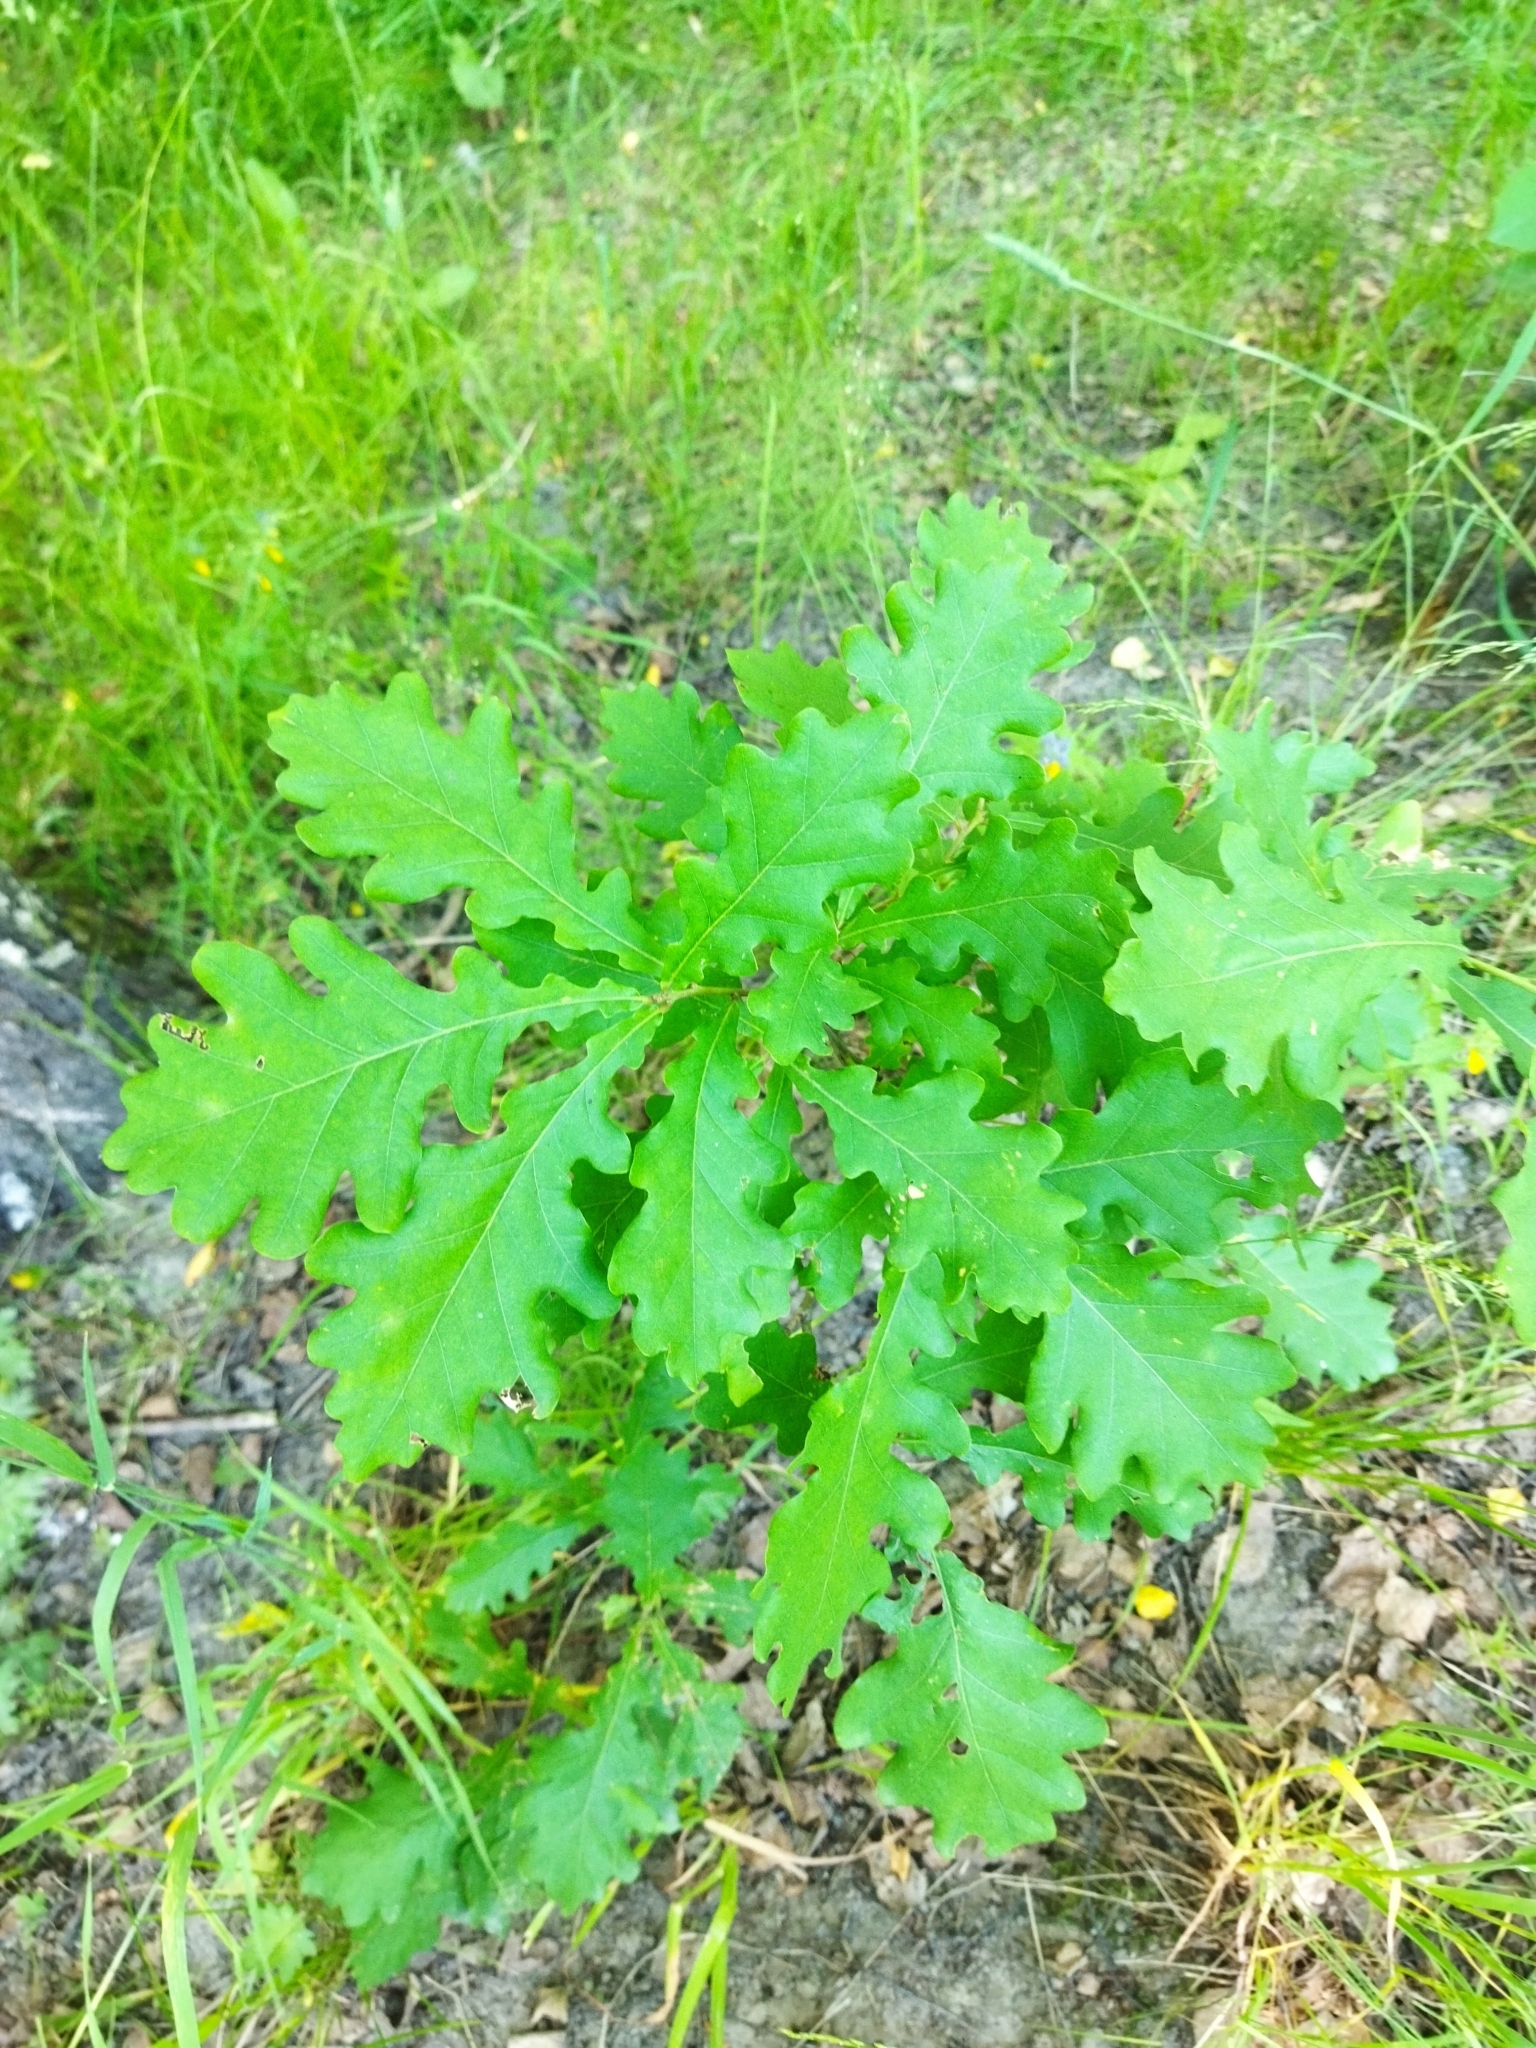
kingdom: Plantae
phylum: Tracheophyta
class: Magnoliopsida
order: Fagales
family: Fagaceae
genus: Quercus
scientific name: Quercus robur
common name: Pedunculate oak
